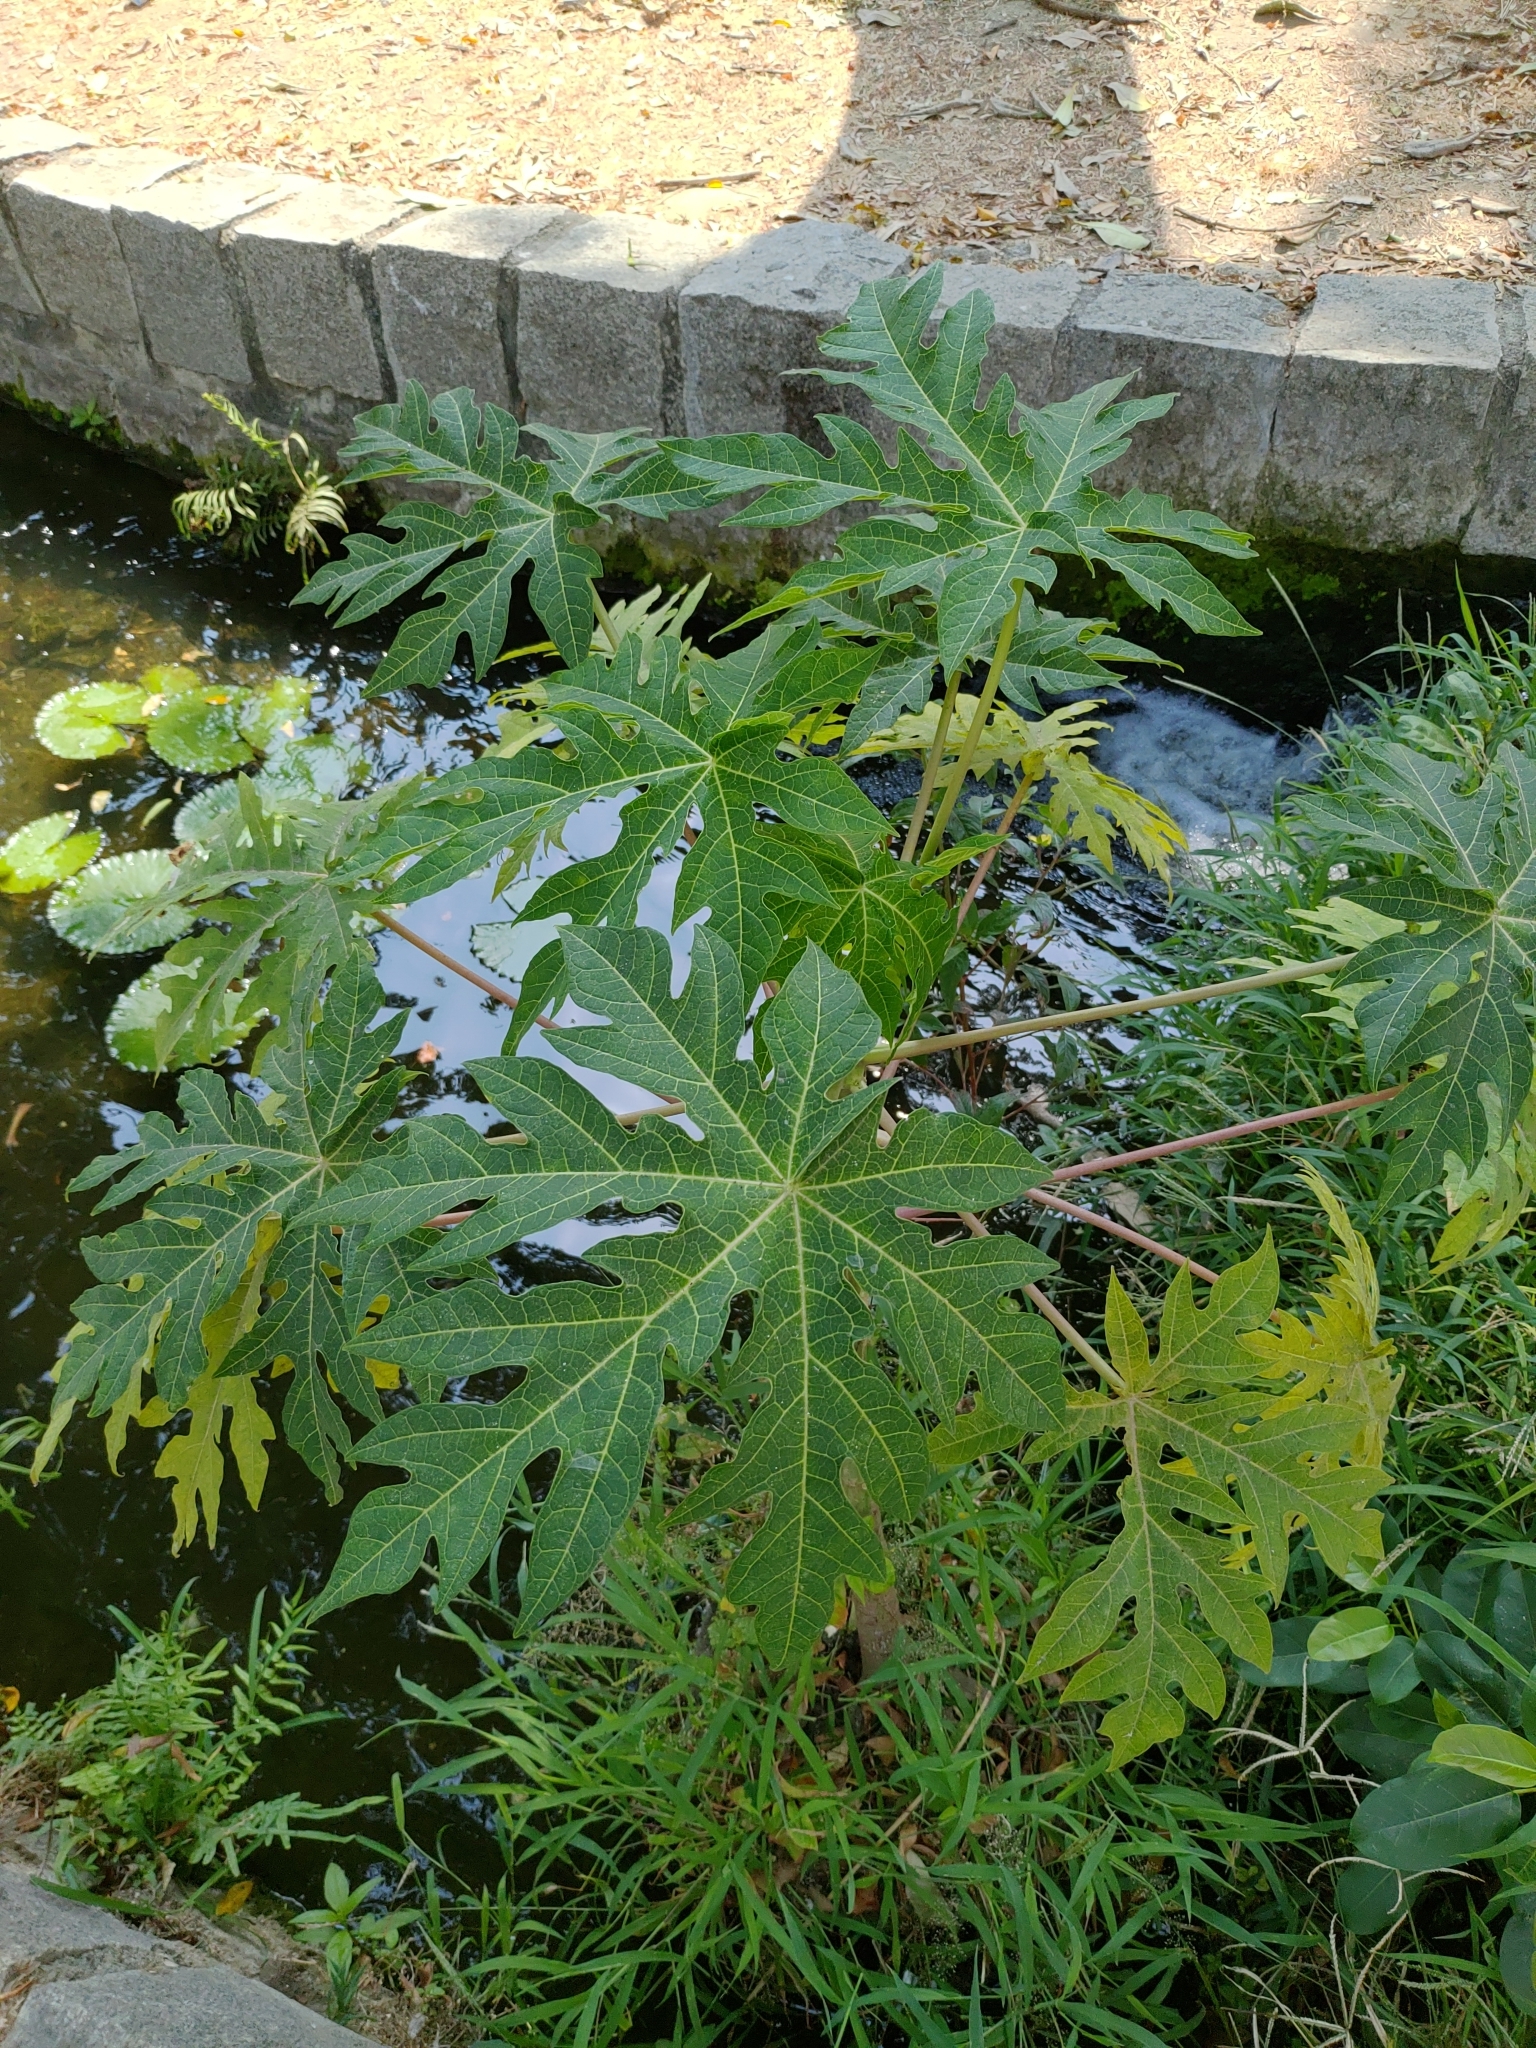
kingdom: Plantae
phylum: Tracheophyta
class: Magnoliopsida
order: Brassicales
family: Caricaceae
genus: Carica
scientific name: Carica papaya
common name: Papaya
